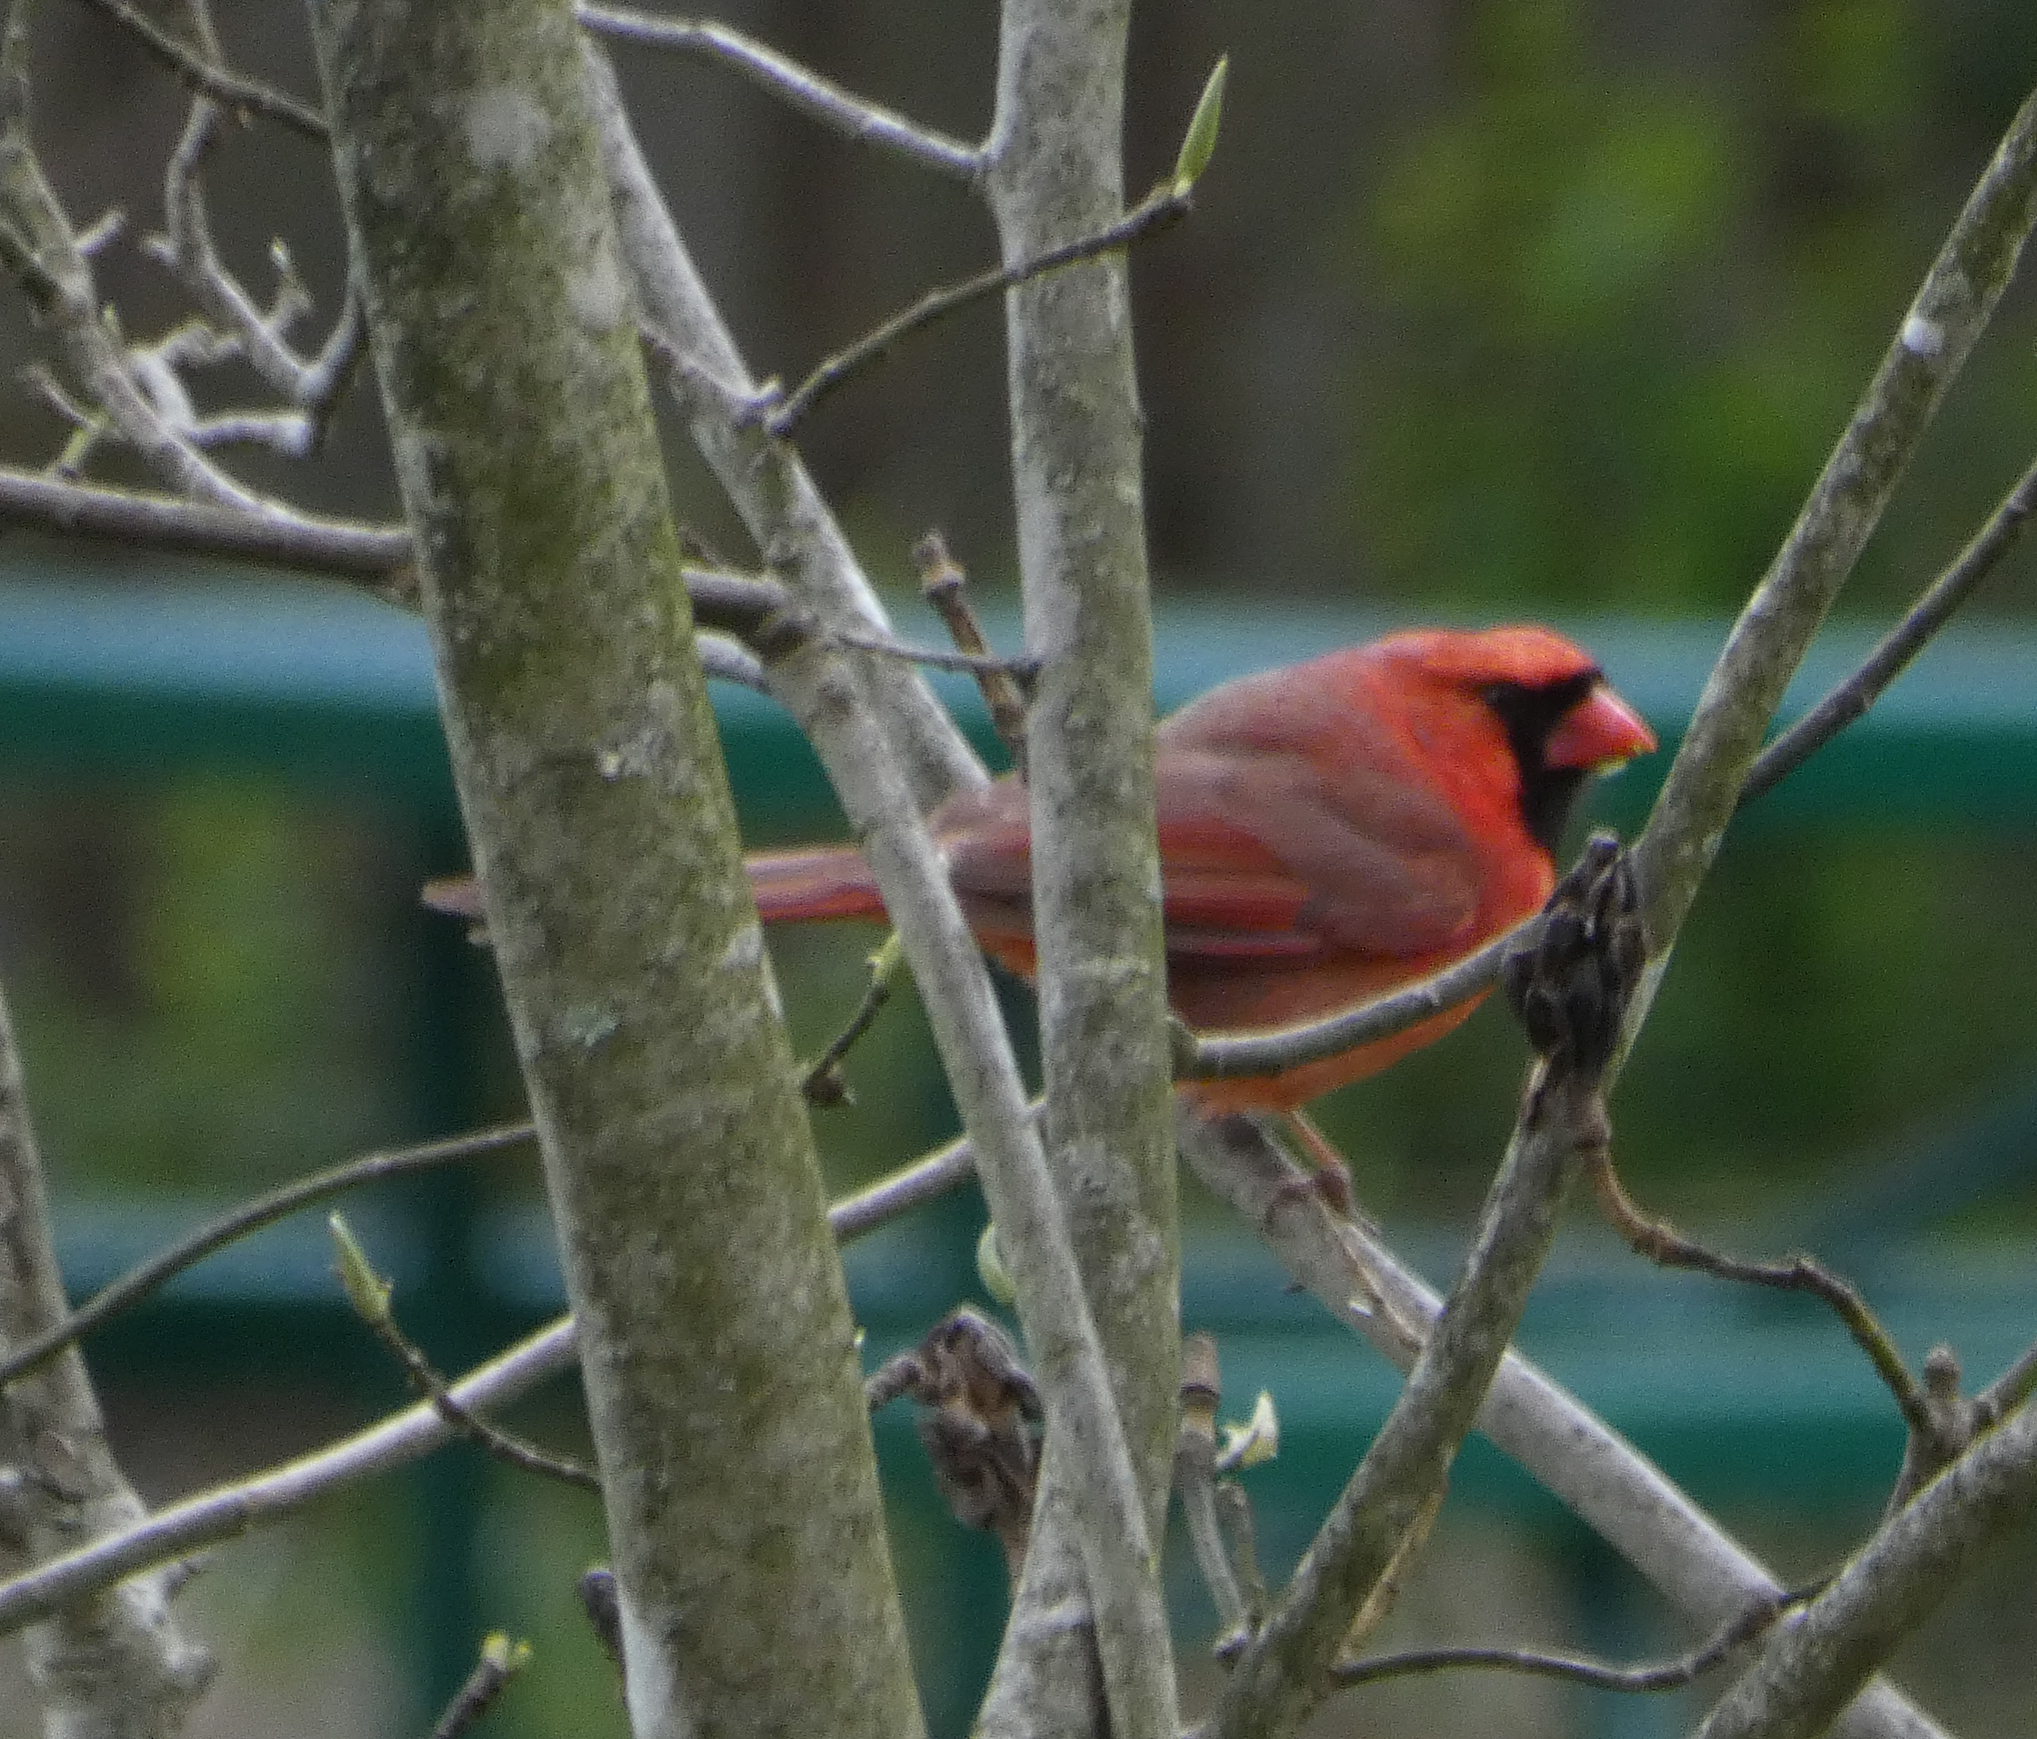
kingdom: Animalia
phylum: Chordata
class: Aves
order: Passeriformes
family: Cardinalidae
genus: Cardinalis
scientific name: Cardinalis cardinalis
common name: Northern cardinal
